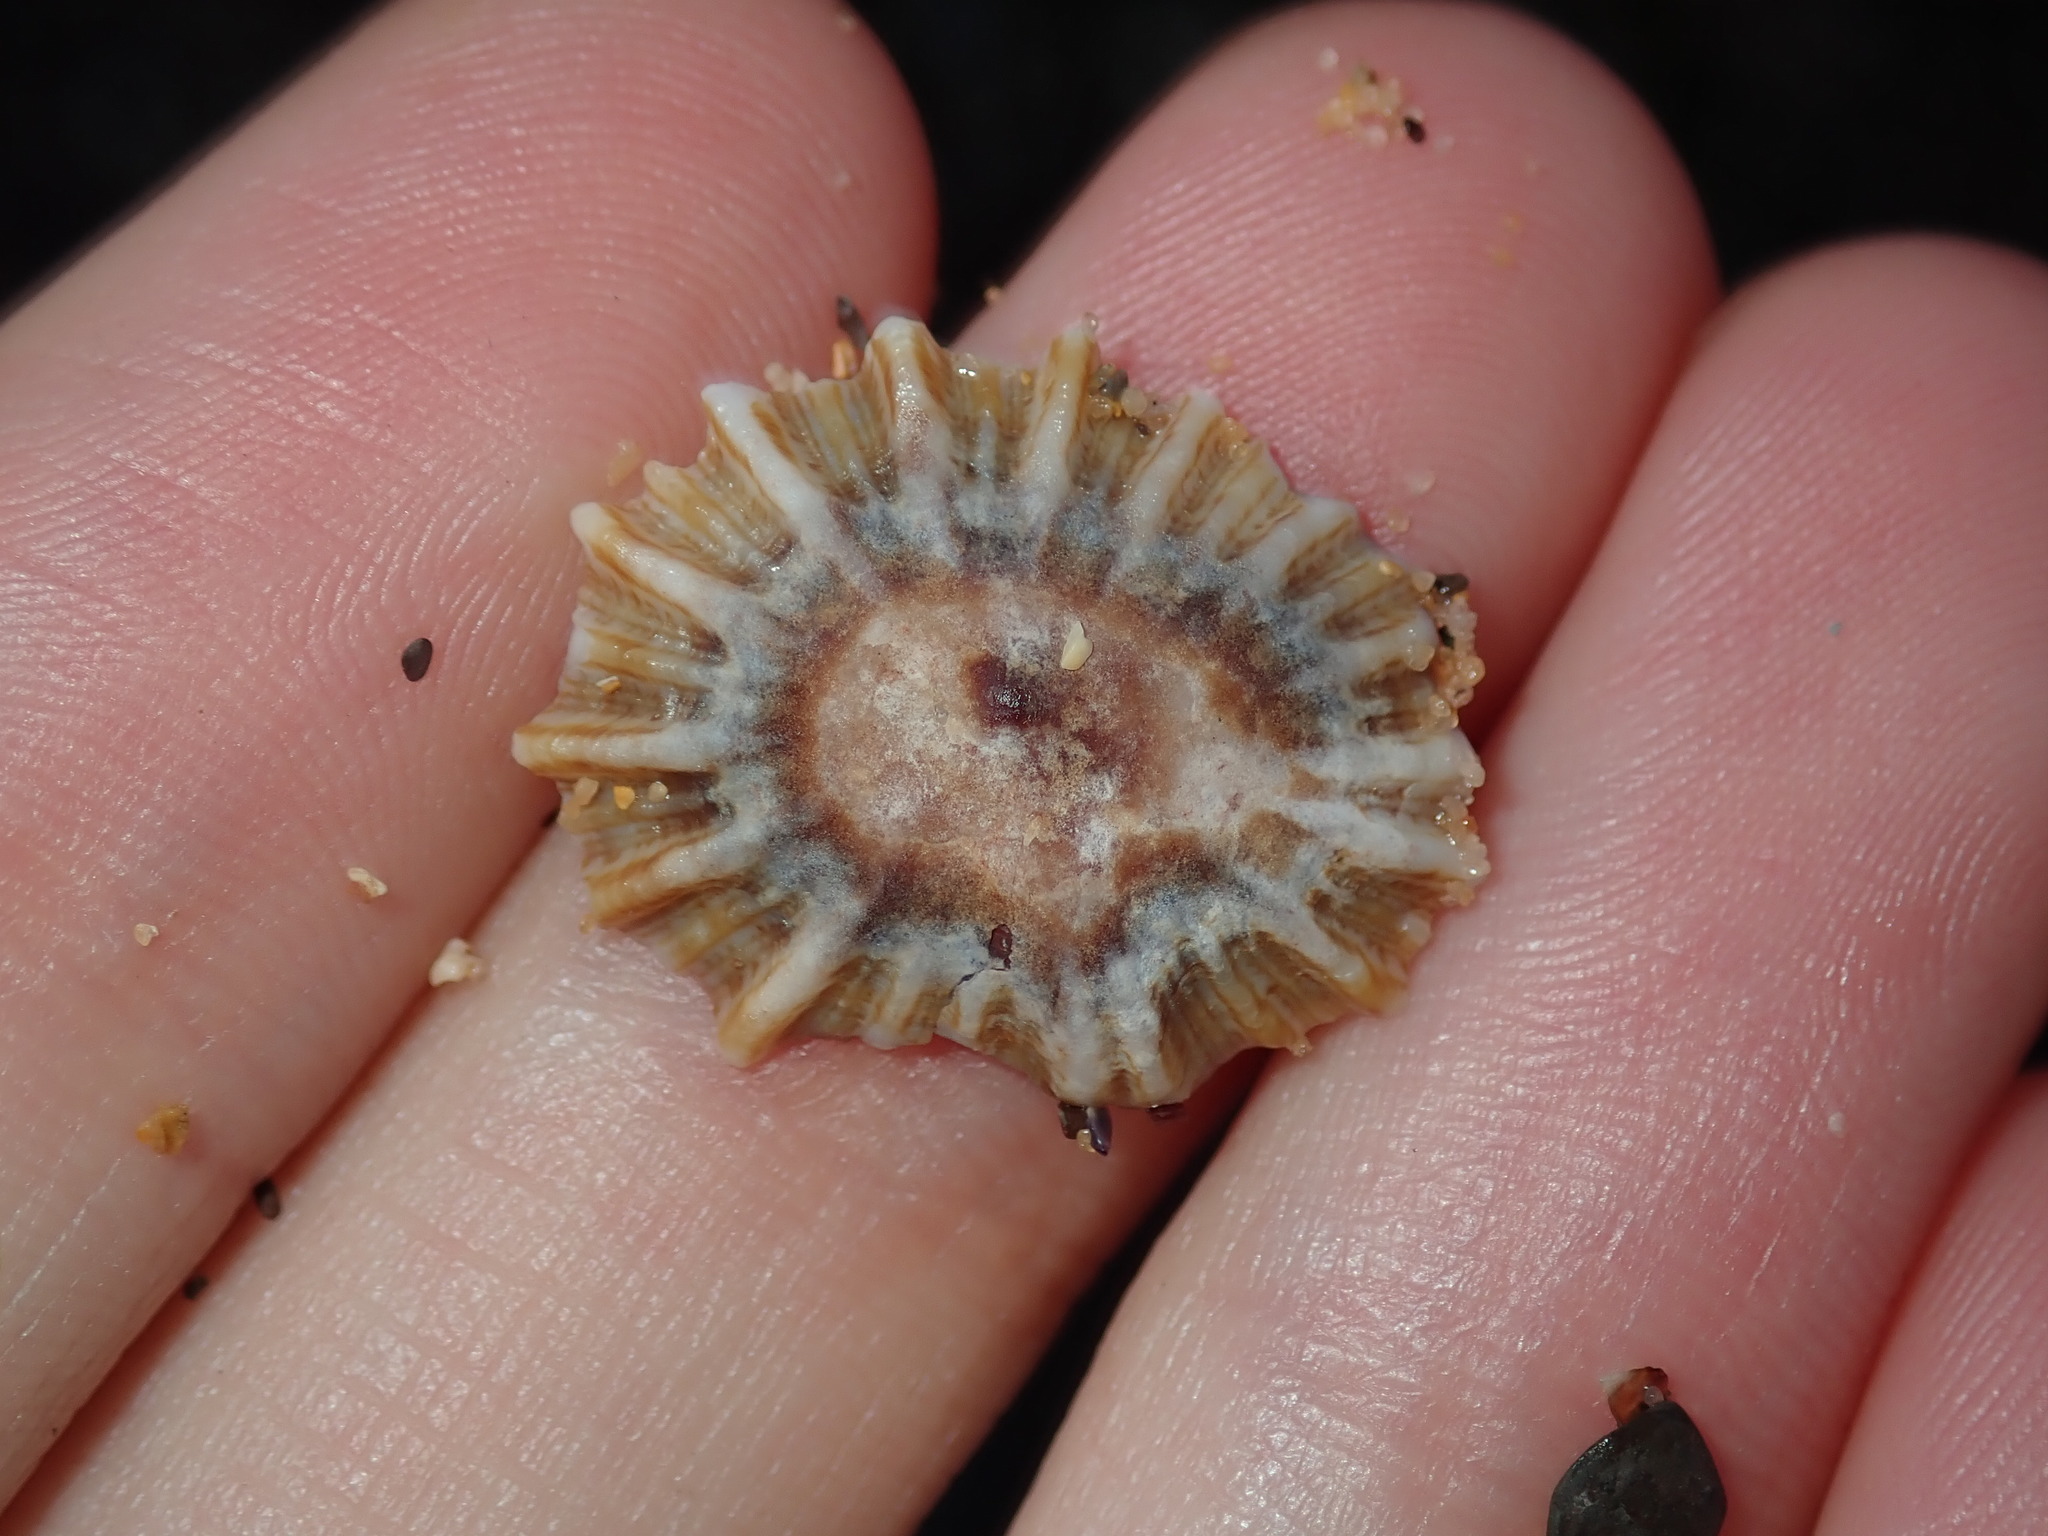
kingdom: Animalia
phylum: Mollusca
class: Gastropoda
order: Siphonariida
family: Siphonariidae
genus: Siphonaria
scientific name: Siphonaria denticulata
